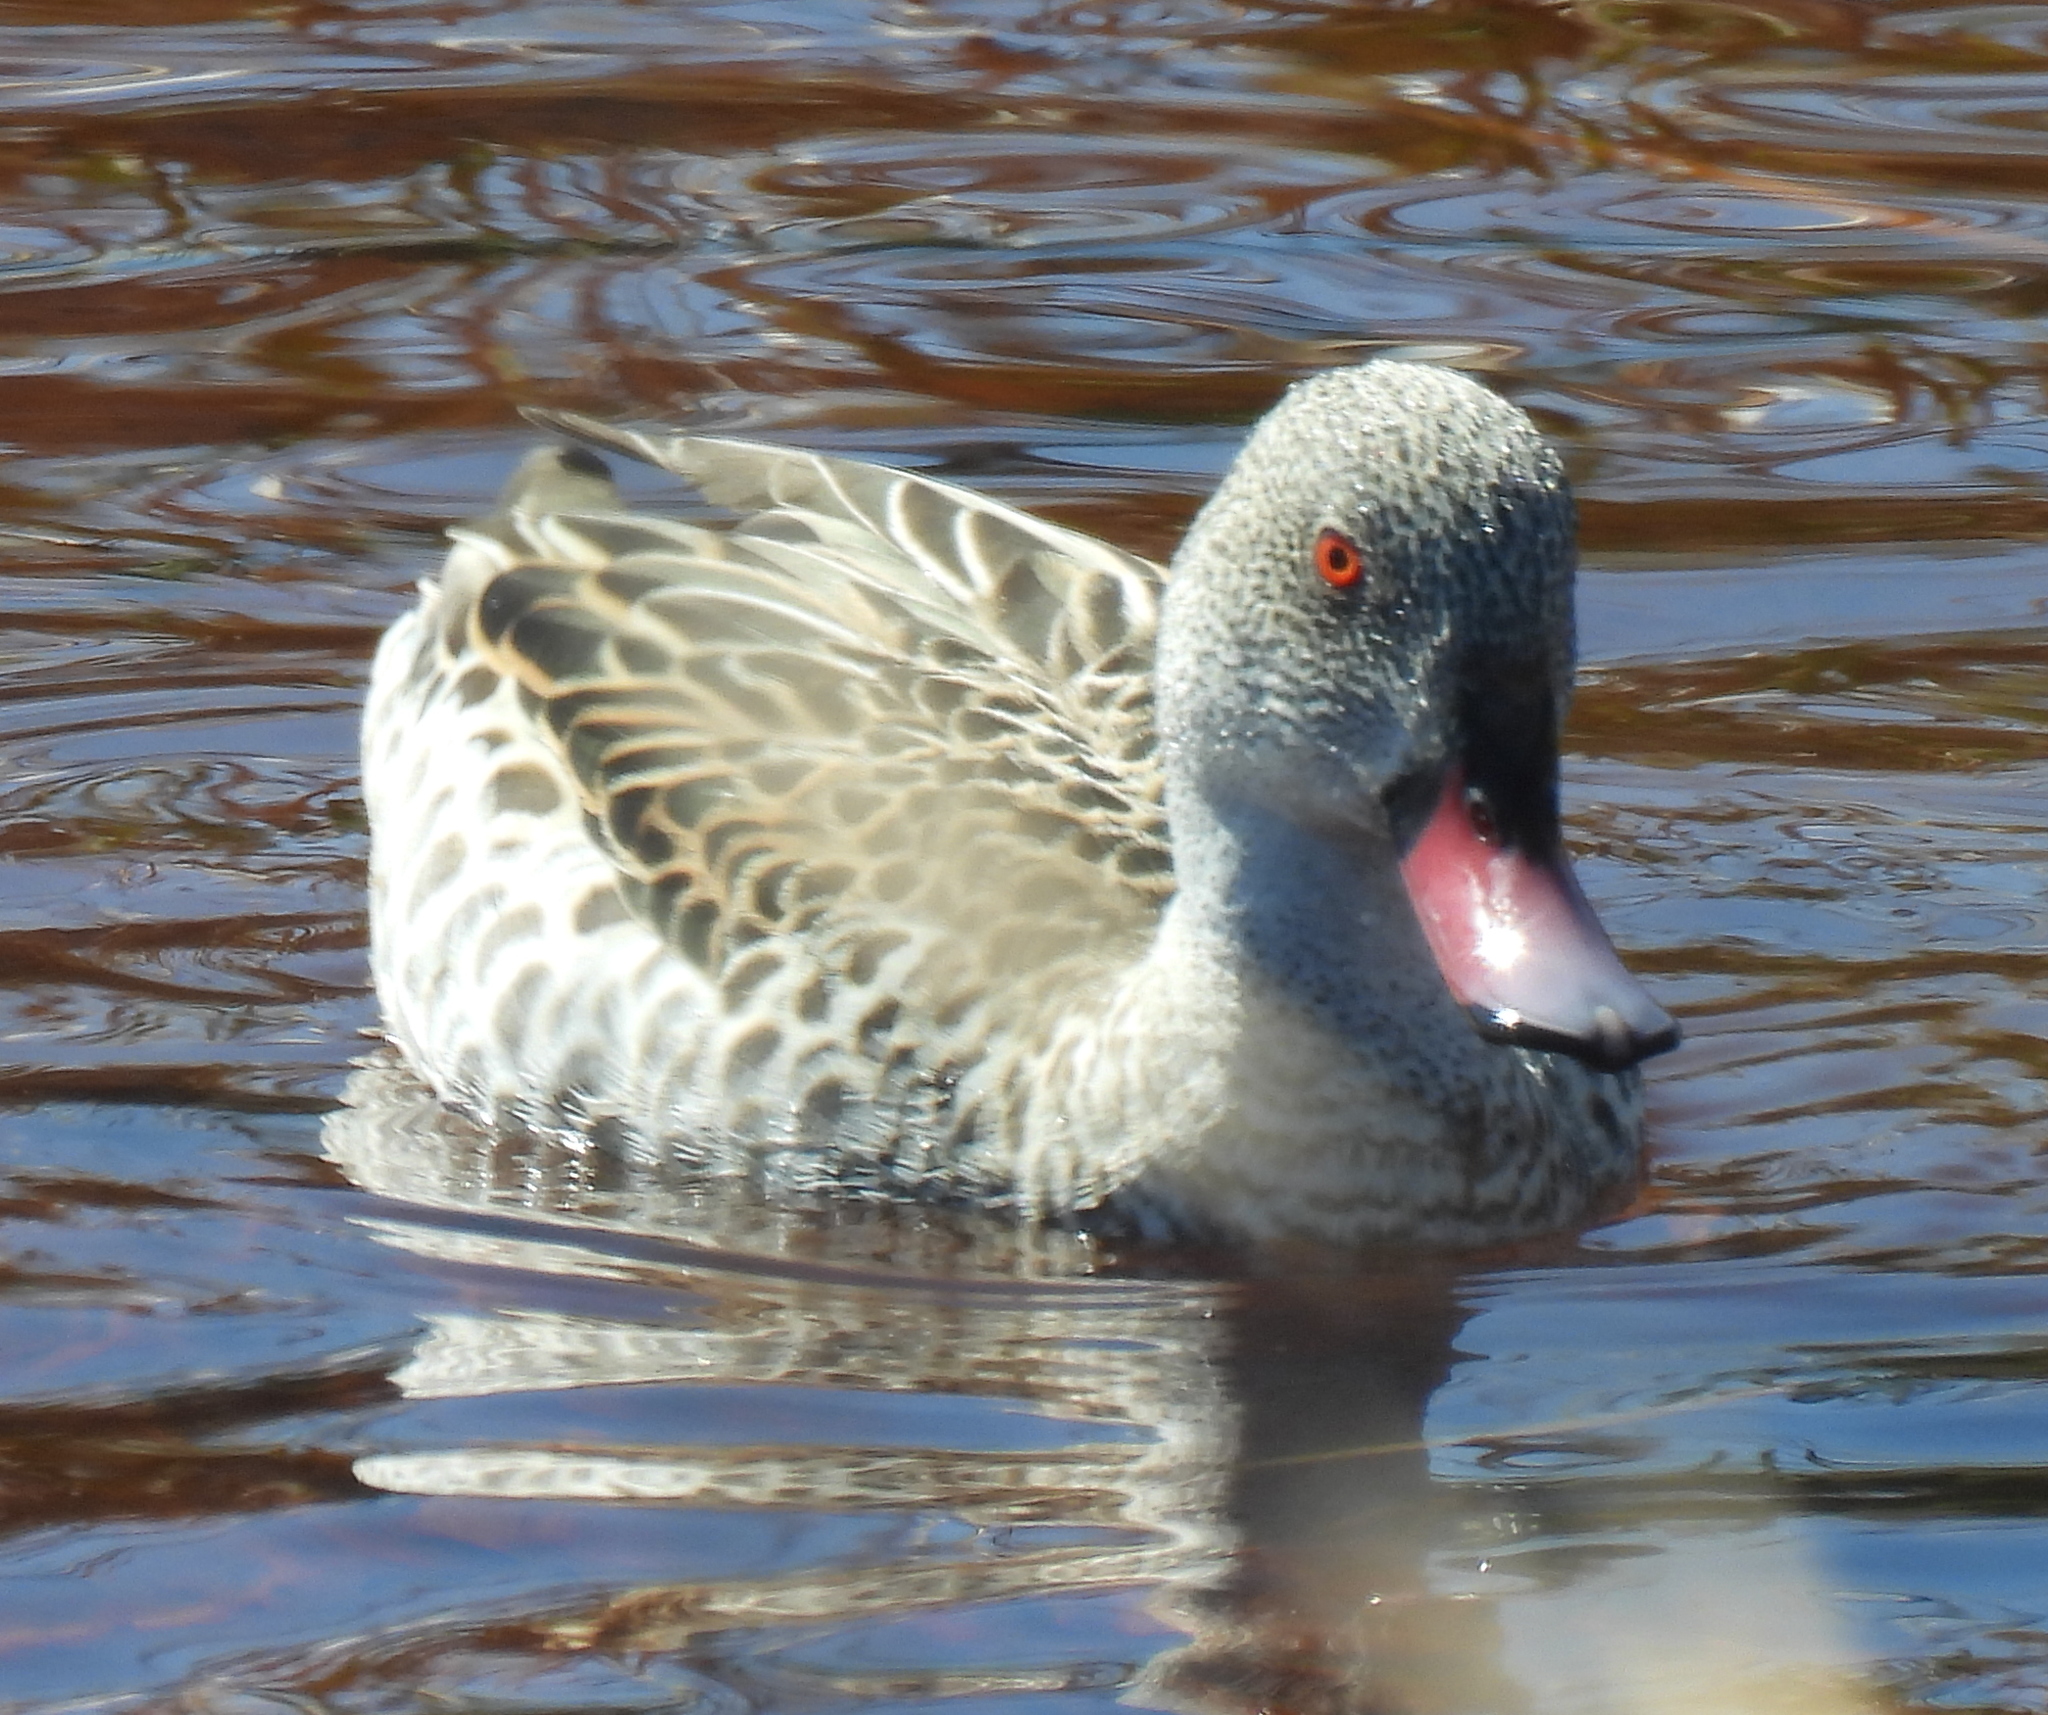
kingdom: Animalia
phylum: Chordata
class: Aves
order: Anseriformes
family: Anatidae
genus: Anas
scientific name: Anas capensis
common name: Cape teal
